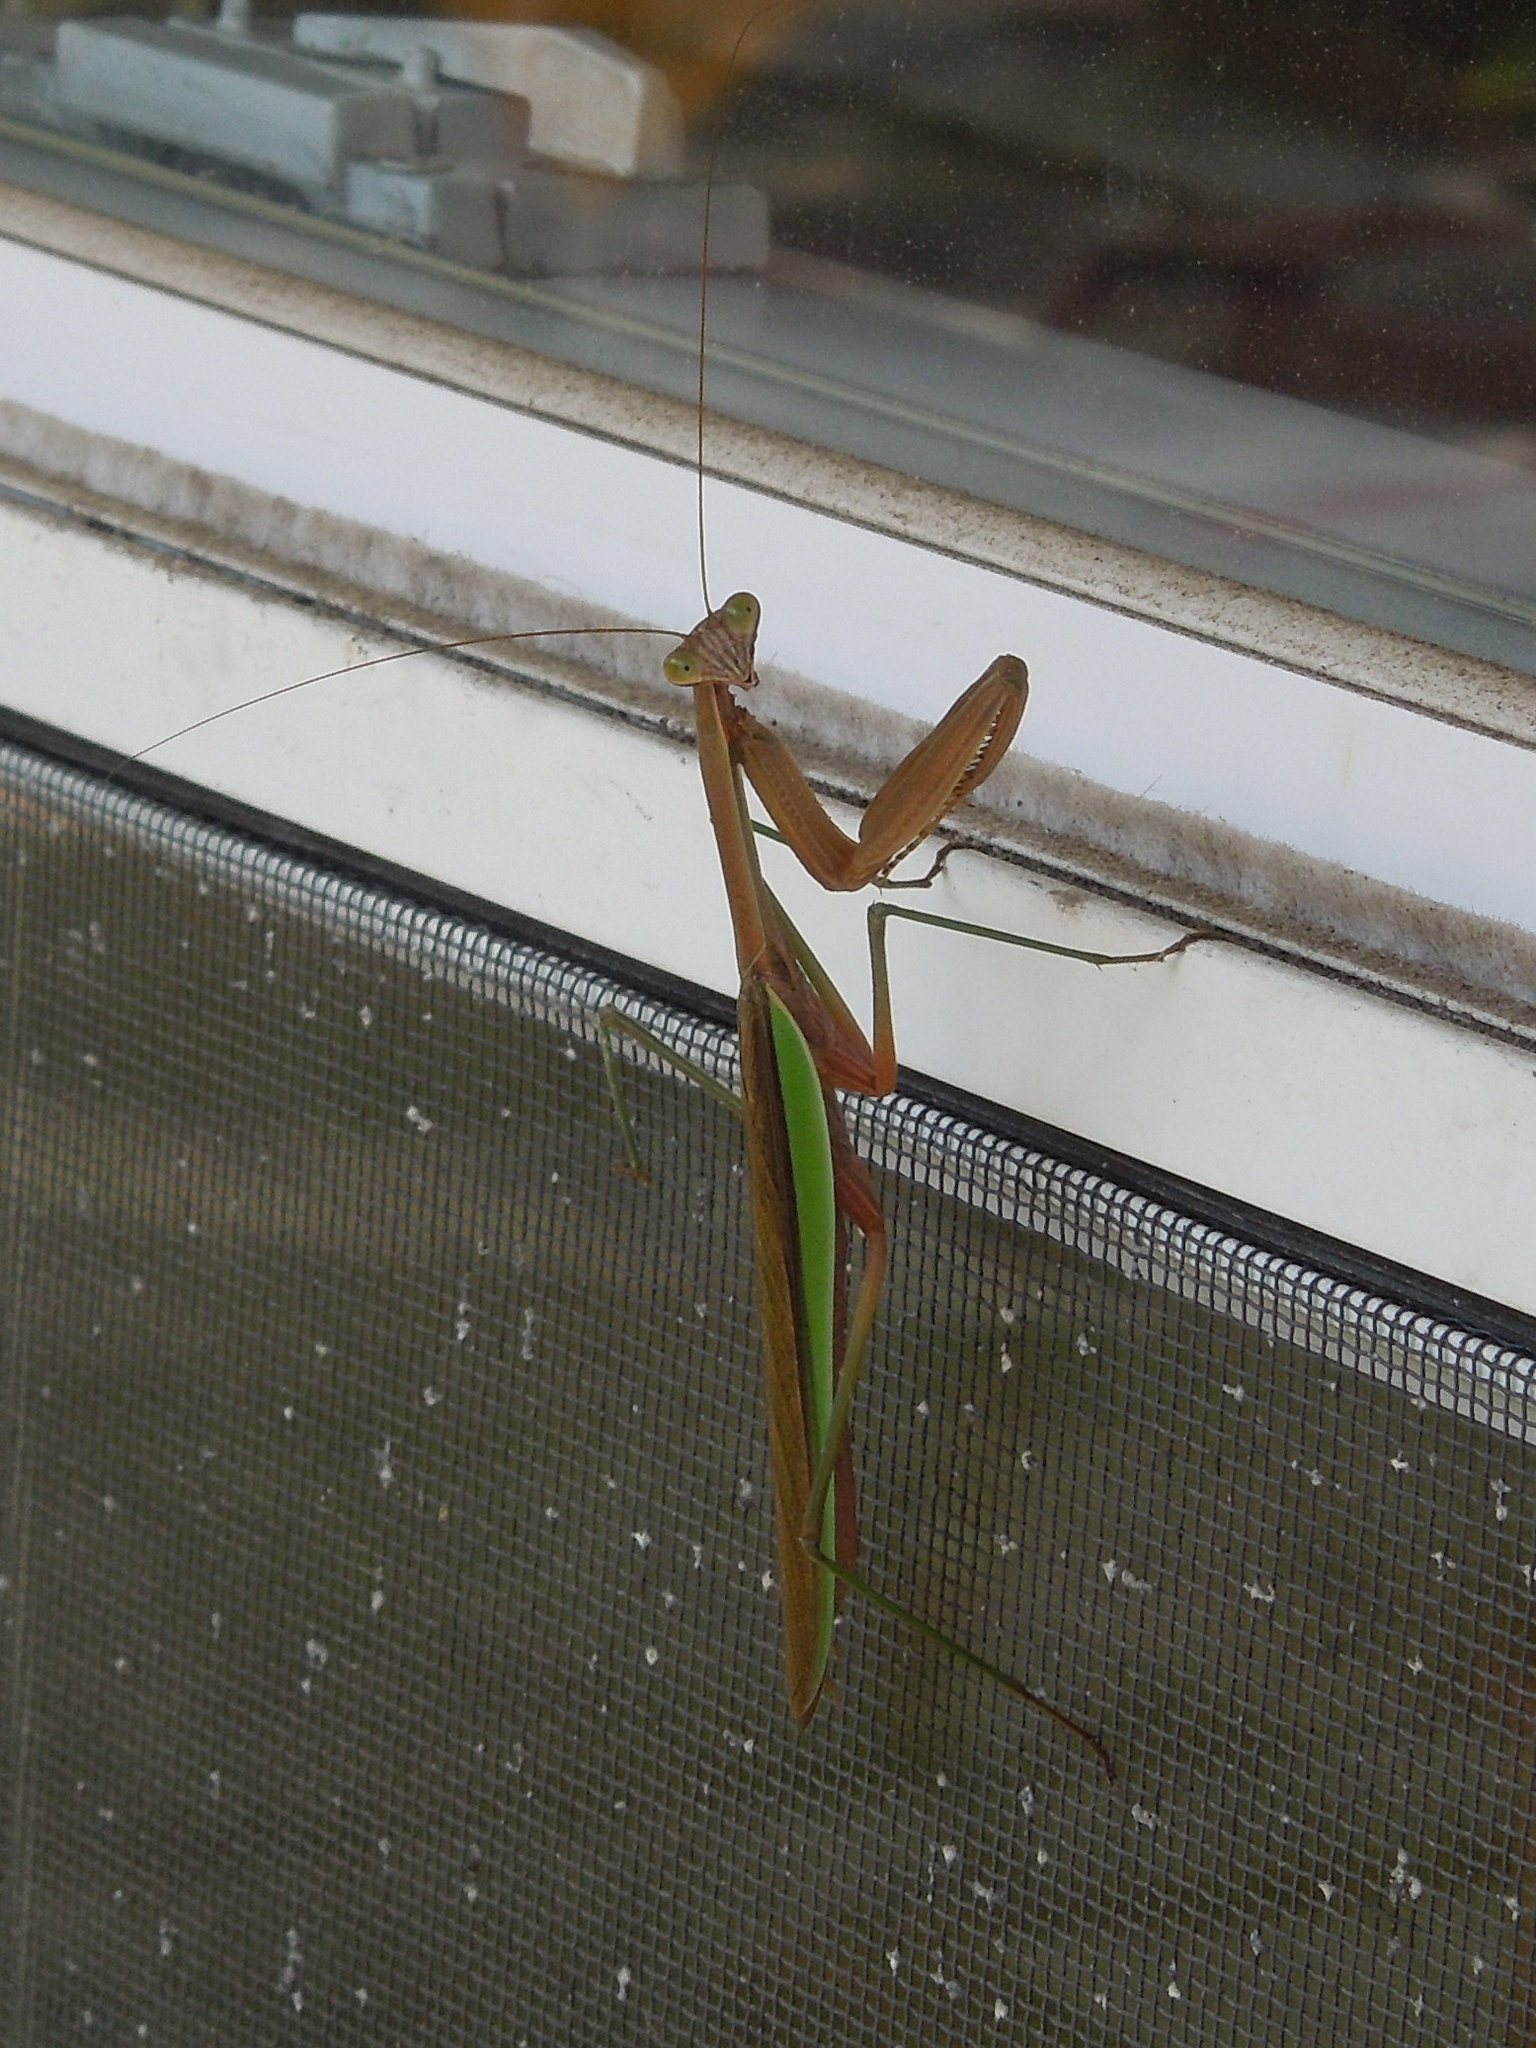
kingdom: Animalia
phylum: Arthropoda
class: Insecta
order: Mantodea
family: Mantidae
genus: Tenodera
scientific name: Tenodera sinensis
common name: Chinese mantis
